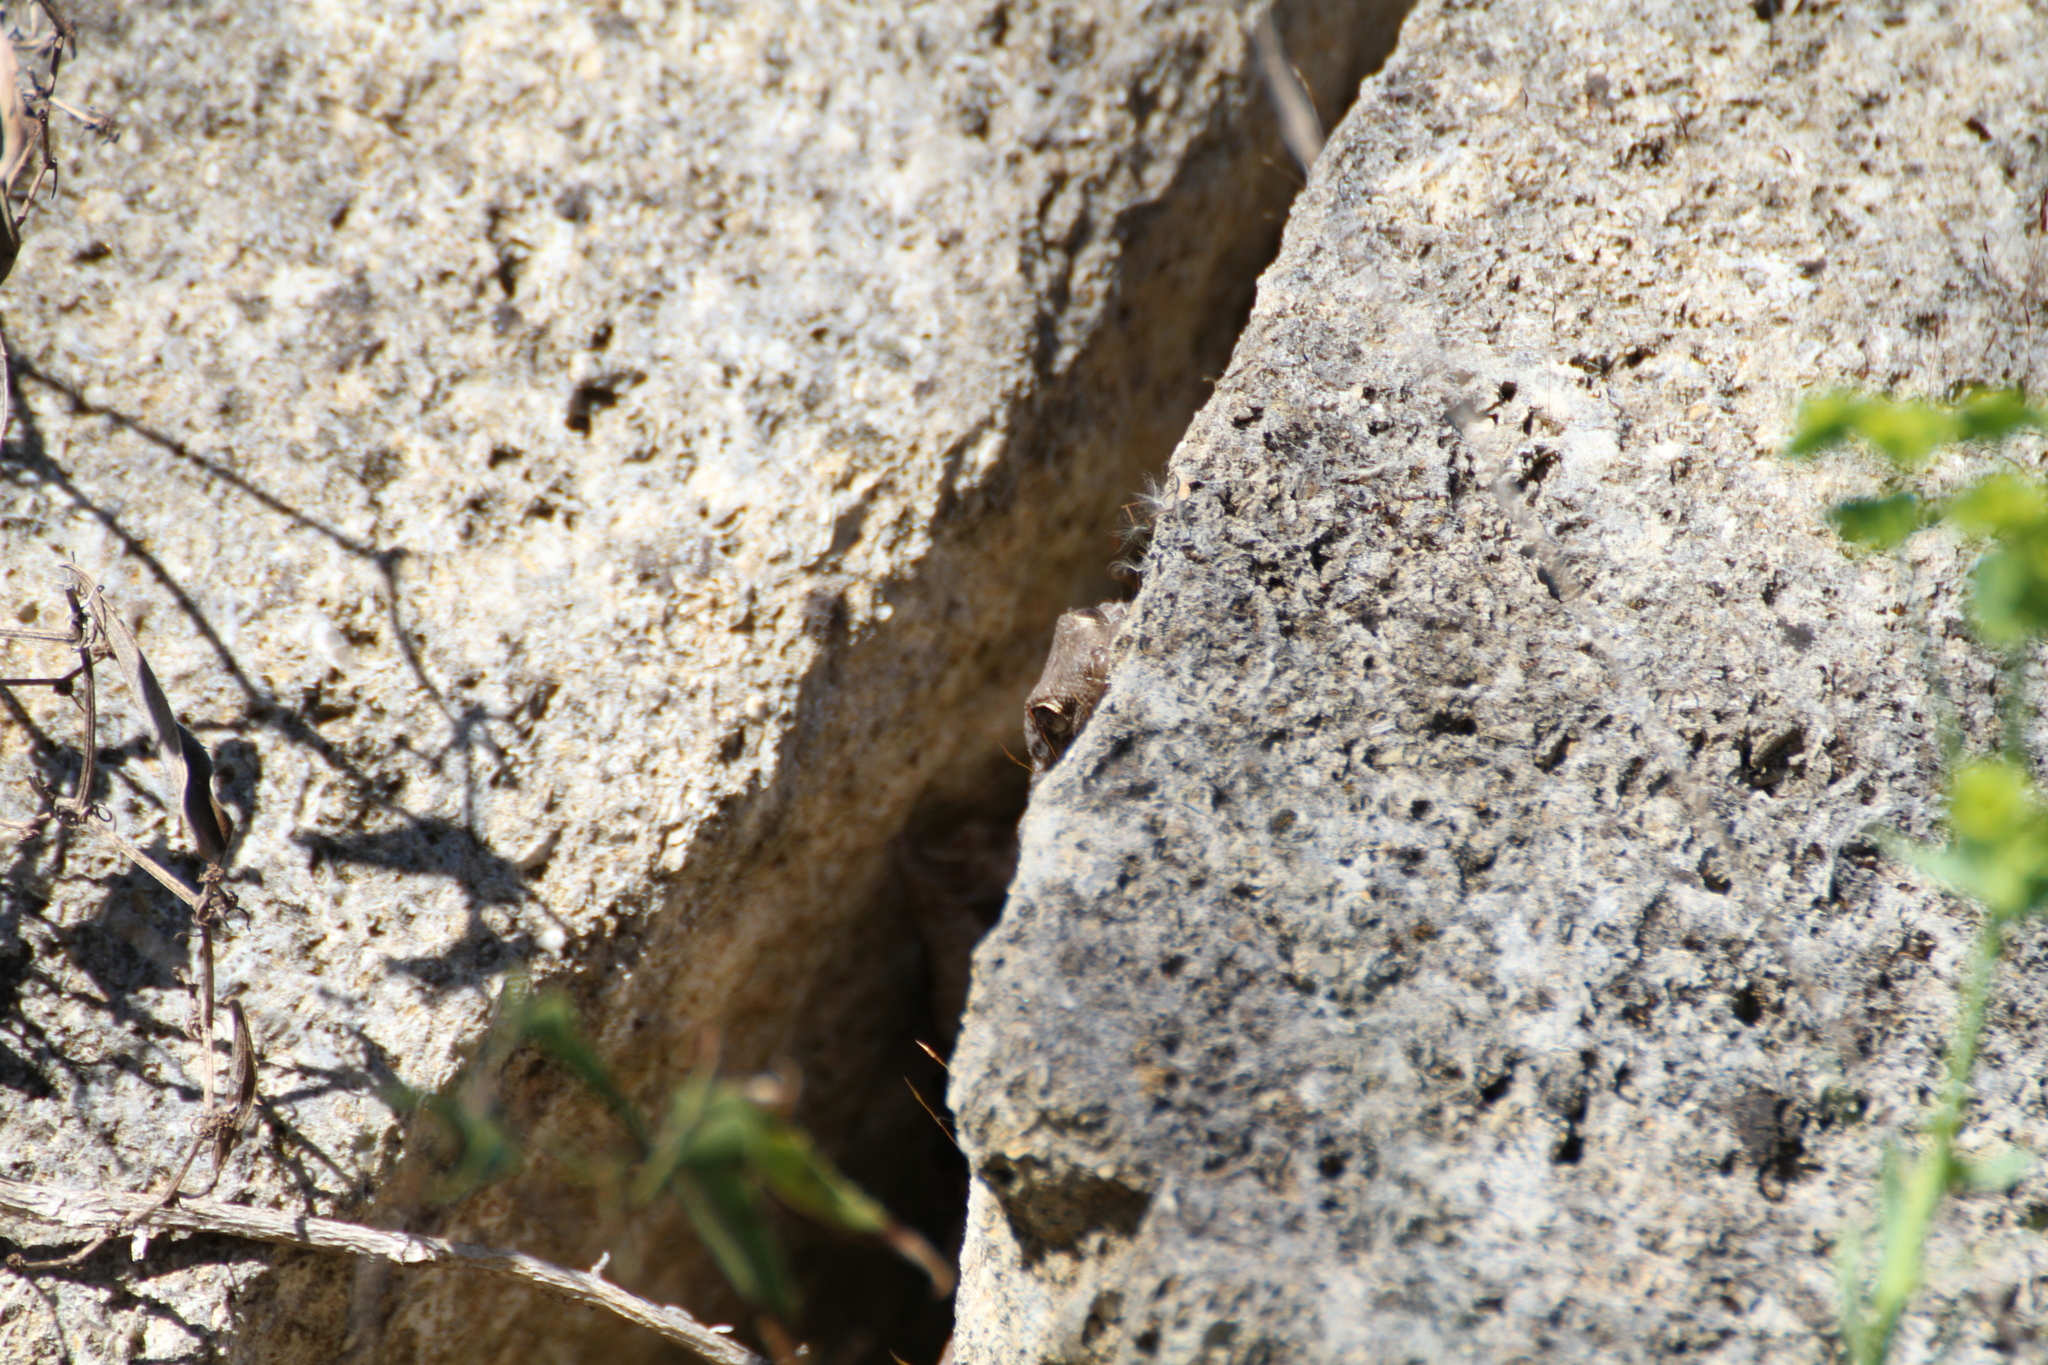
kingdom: Animalia
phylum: Chordata
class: Squamata
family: Phyllodactylidae
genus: Tarentola
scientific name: Tarentola mauritanica
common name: Moorish gecko
